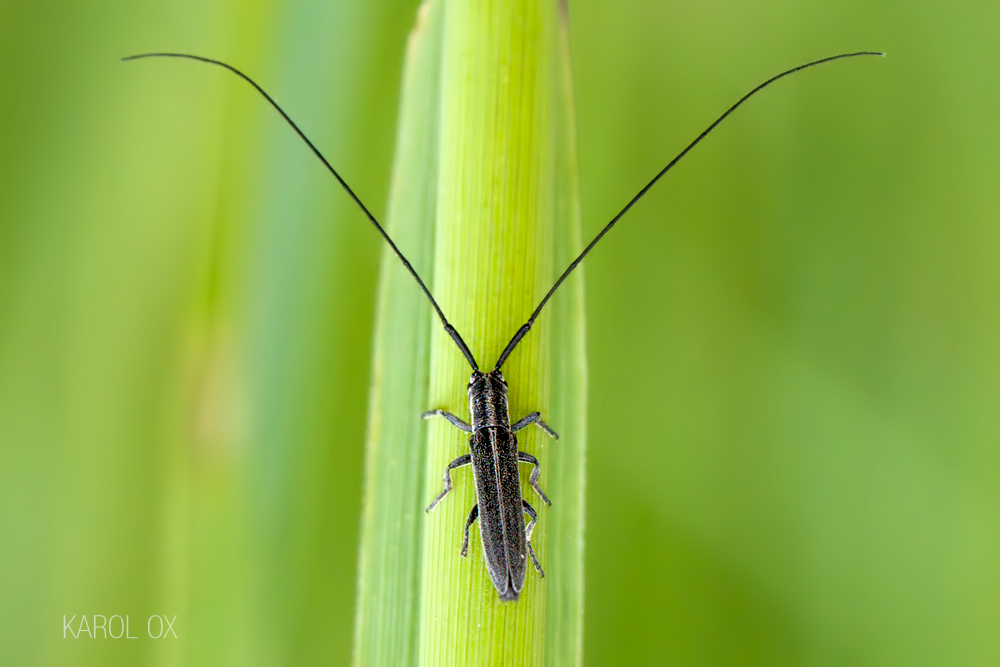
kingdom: Animalia
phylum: Arthropoda
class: Insecta
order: Coleoptera
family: Cerambycidae
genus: Calamobius
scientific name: Calamobius filum
